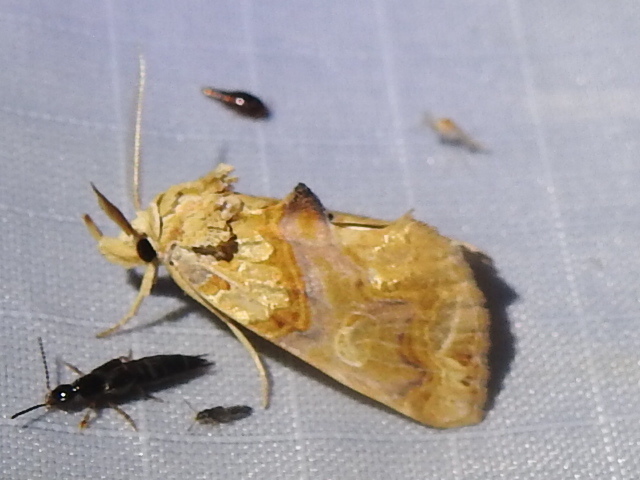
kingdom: Animalia
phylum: Arthropoda
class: Insecta
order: Lepidoptera
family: Erebidae
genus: Plusiodonta
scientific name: Plusiodonta compressipalpis
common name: Moonseed moth
